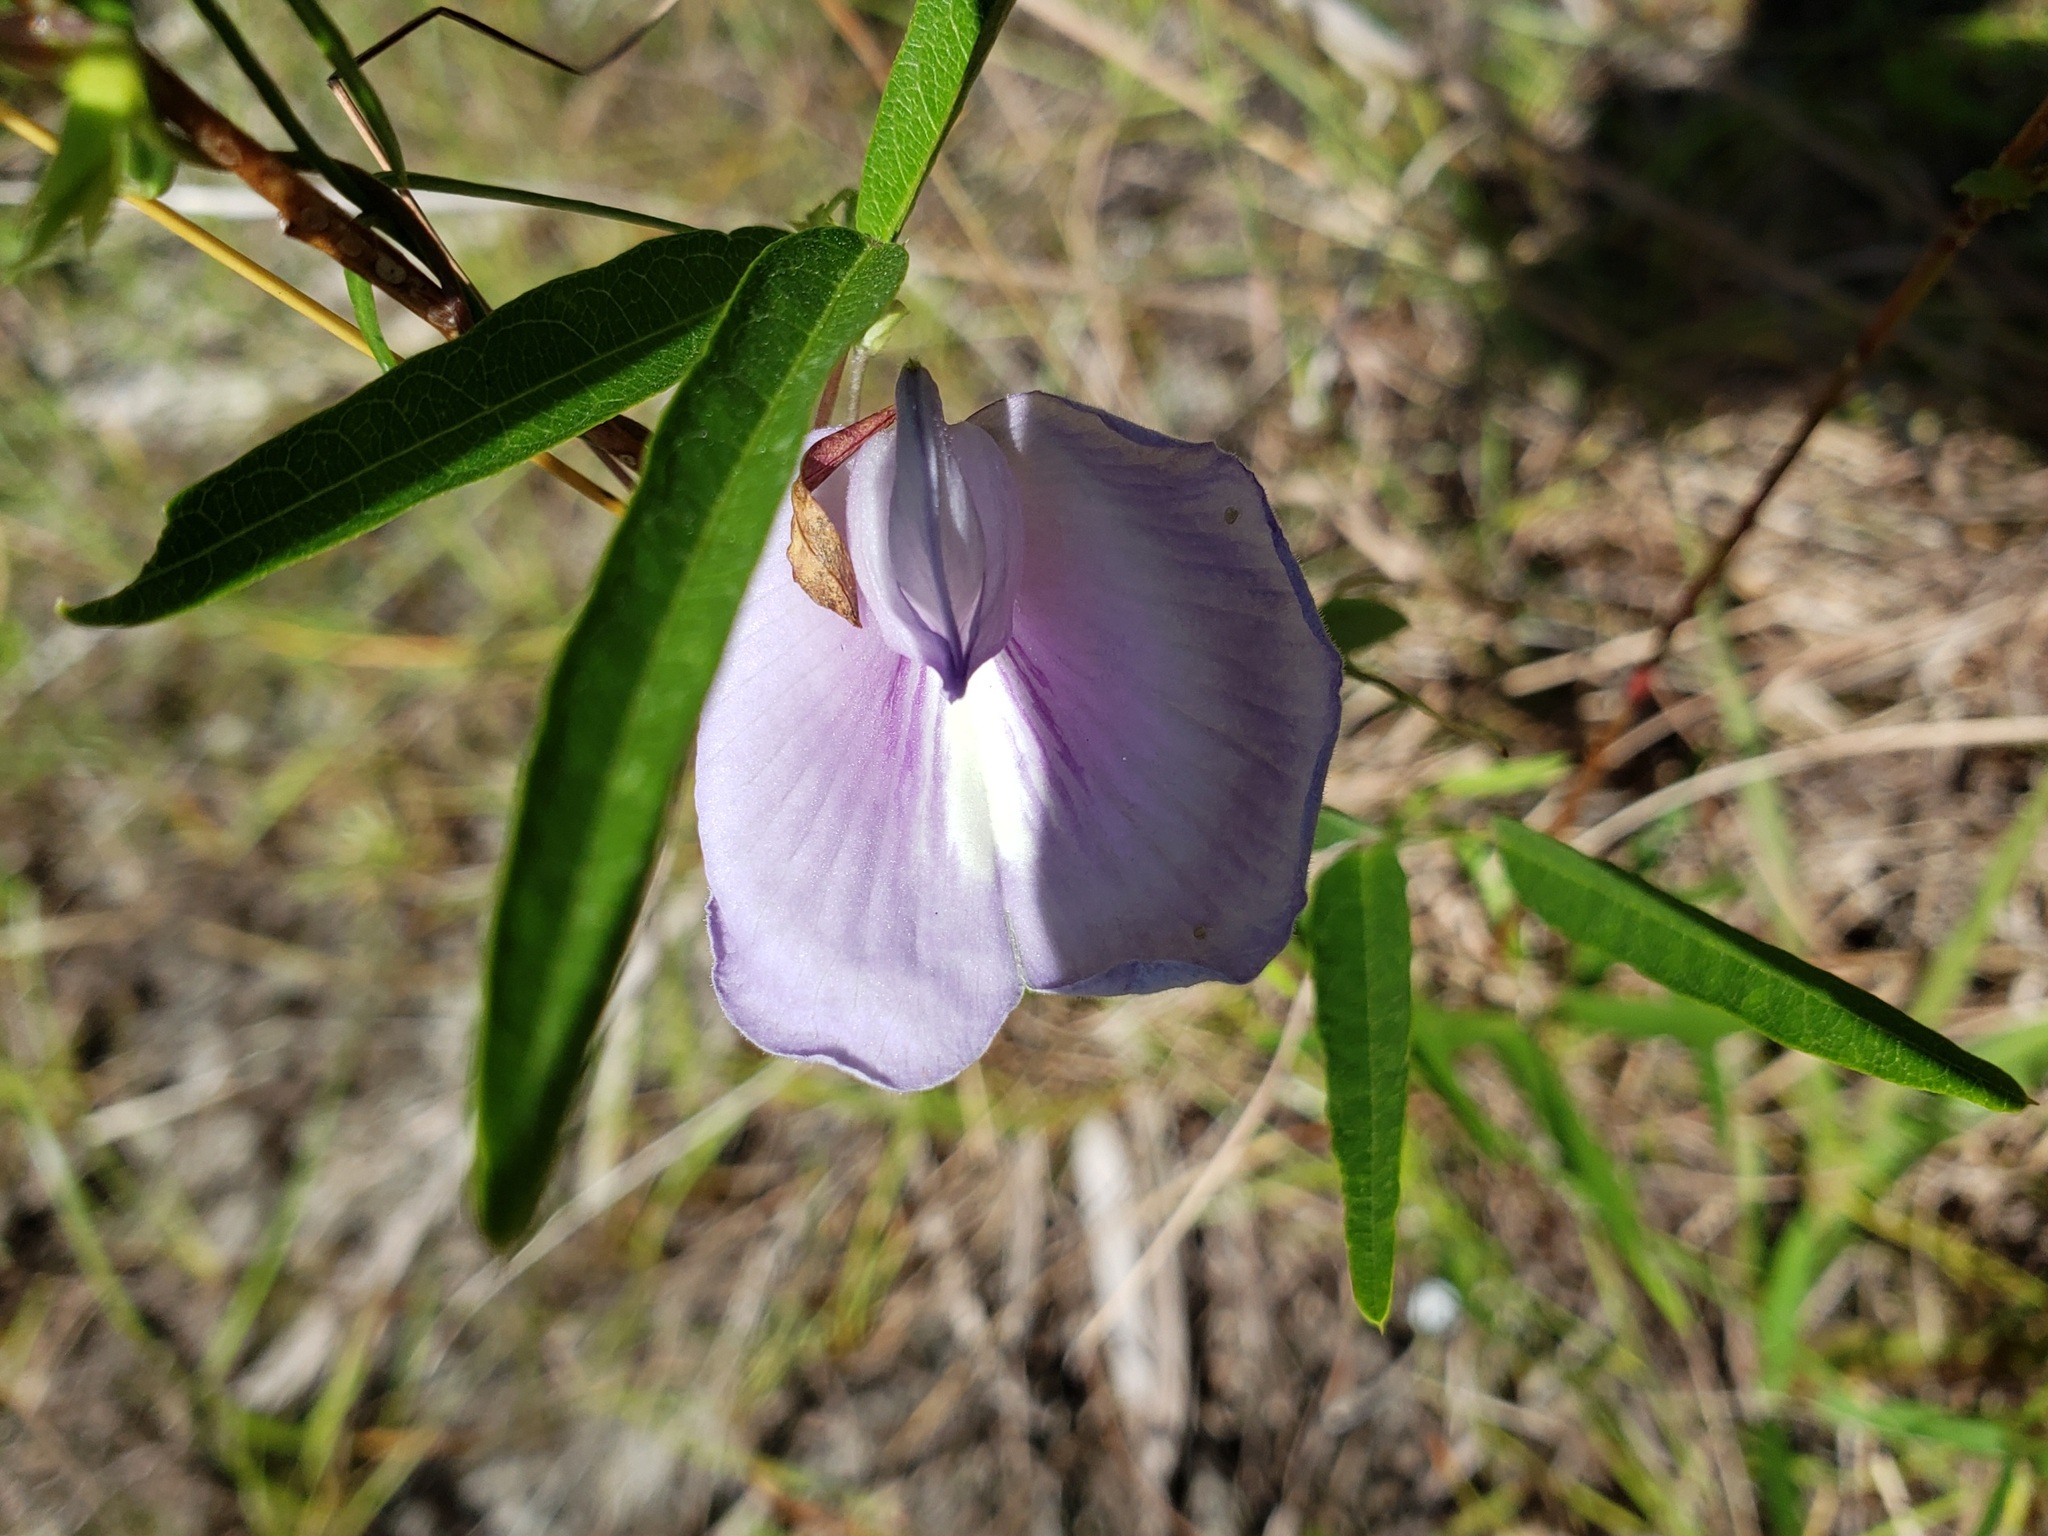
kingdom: Plantae
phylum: Tracheophyta
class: Magnoliopsida
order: Fabales
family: Fabaceae
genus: Centrosema
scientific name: Centrosema virginianum
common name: Butterfly-pea
